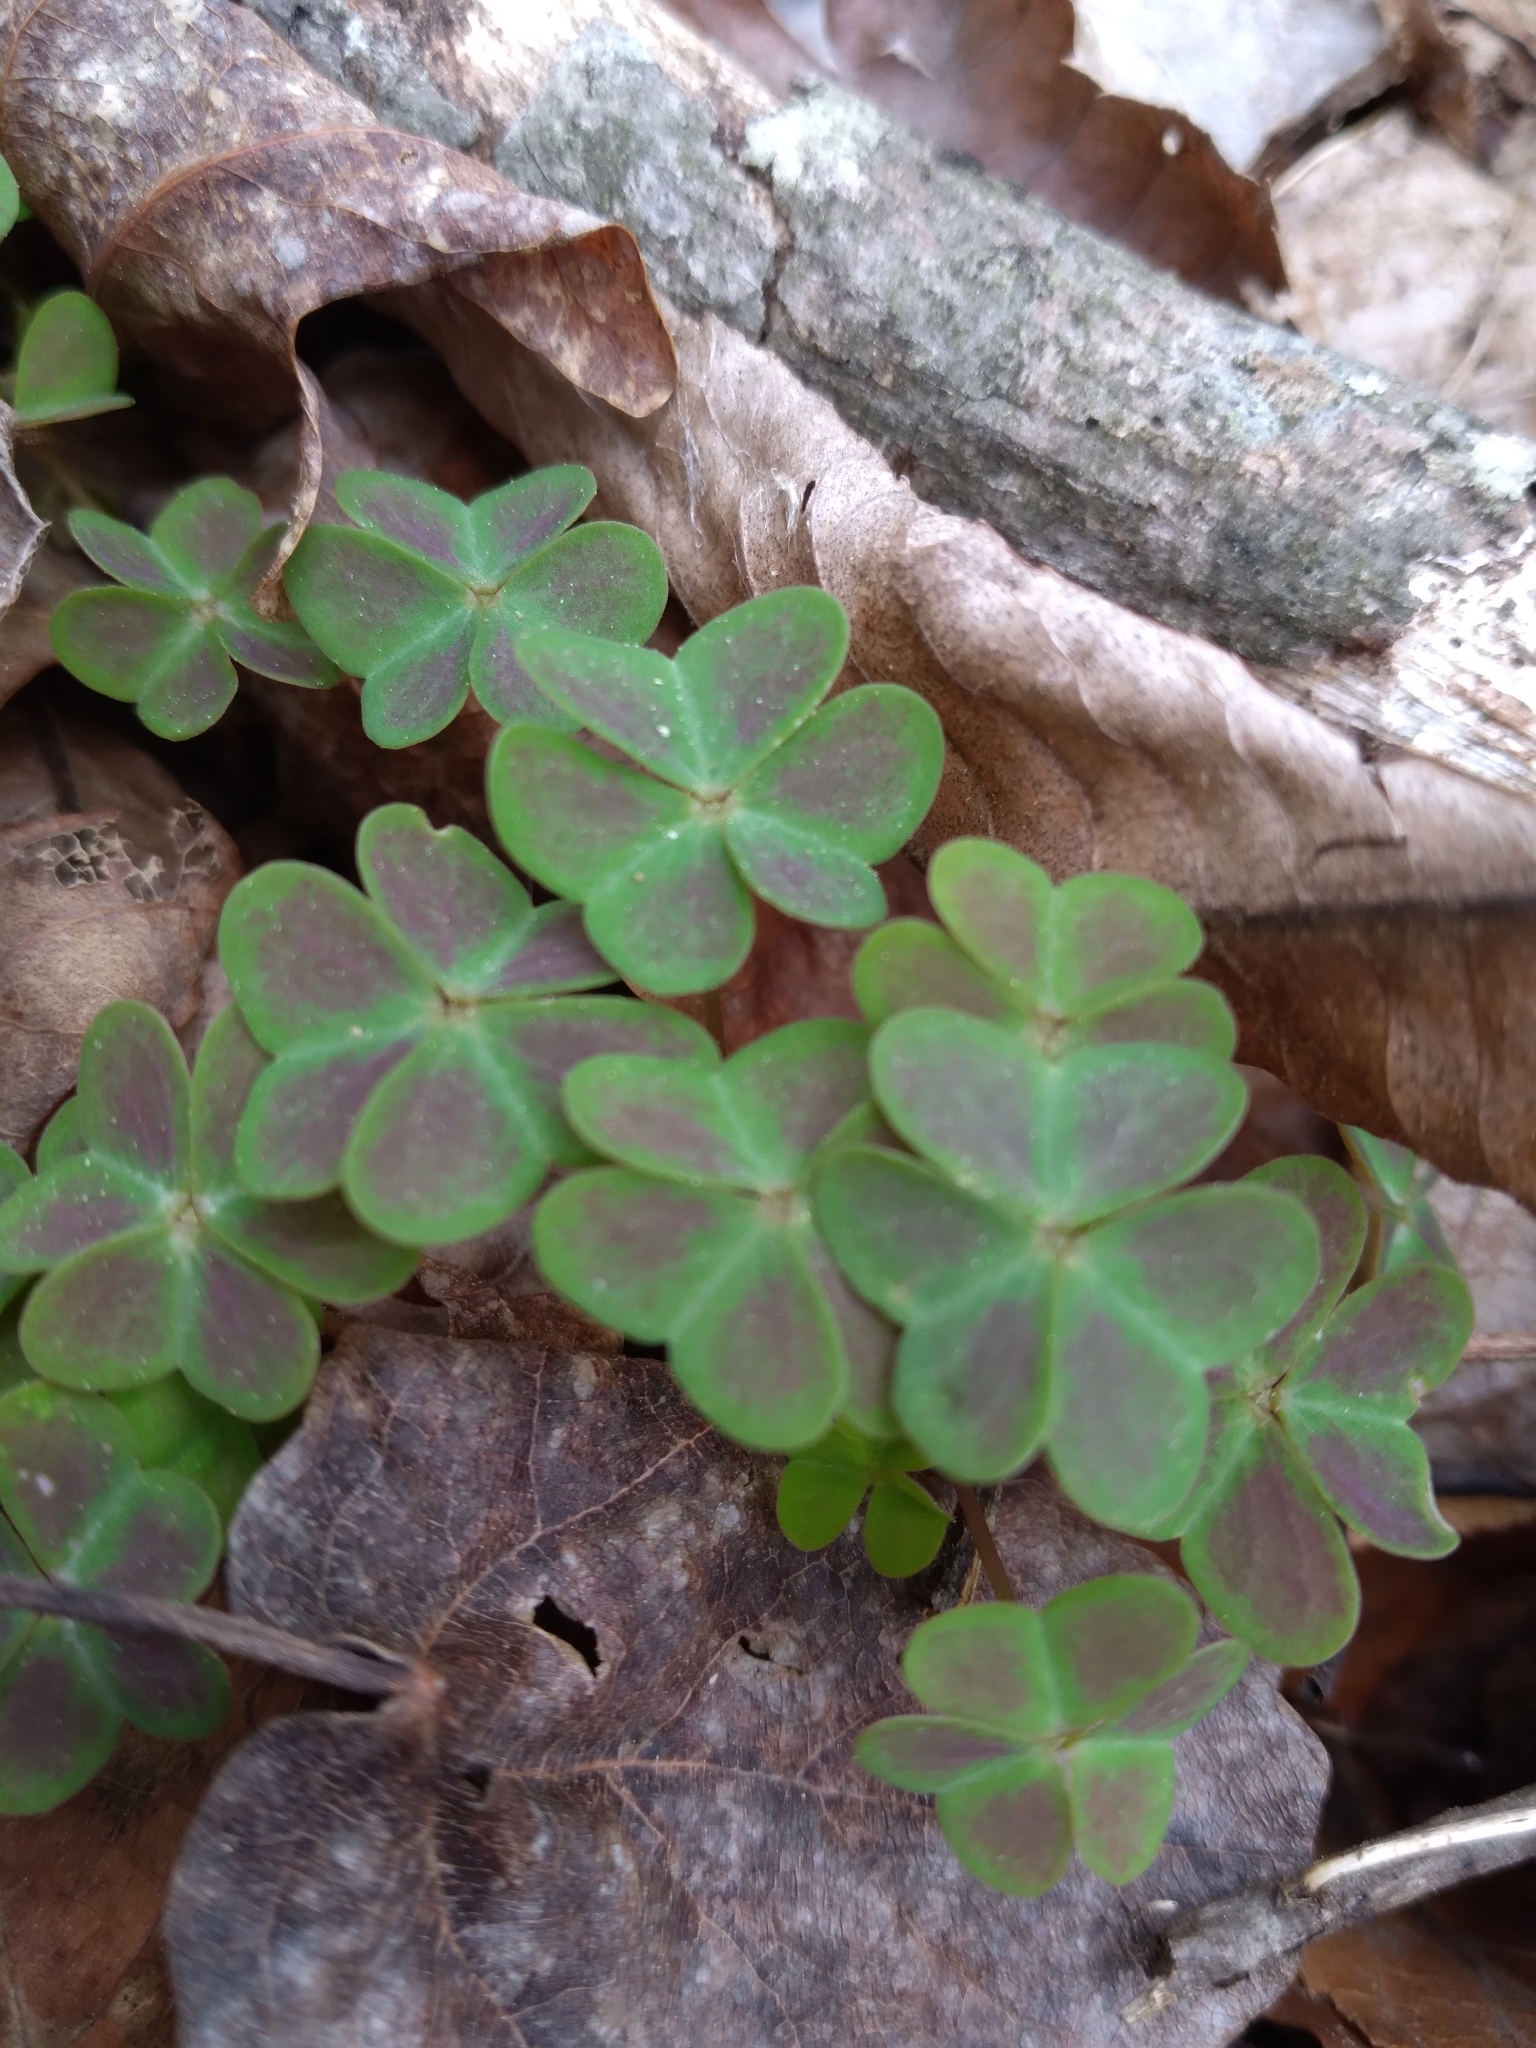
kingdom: Plantae
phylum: Tracheophyta
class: Magnoliopsida
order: Oxalidales
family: Oxalidaceae
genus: Oxalis
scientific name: Oxalis violacea
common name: Violet wood-sorrel
